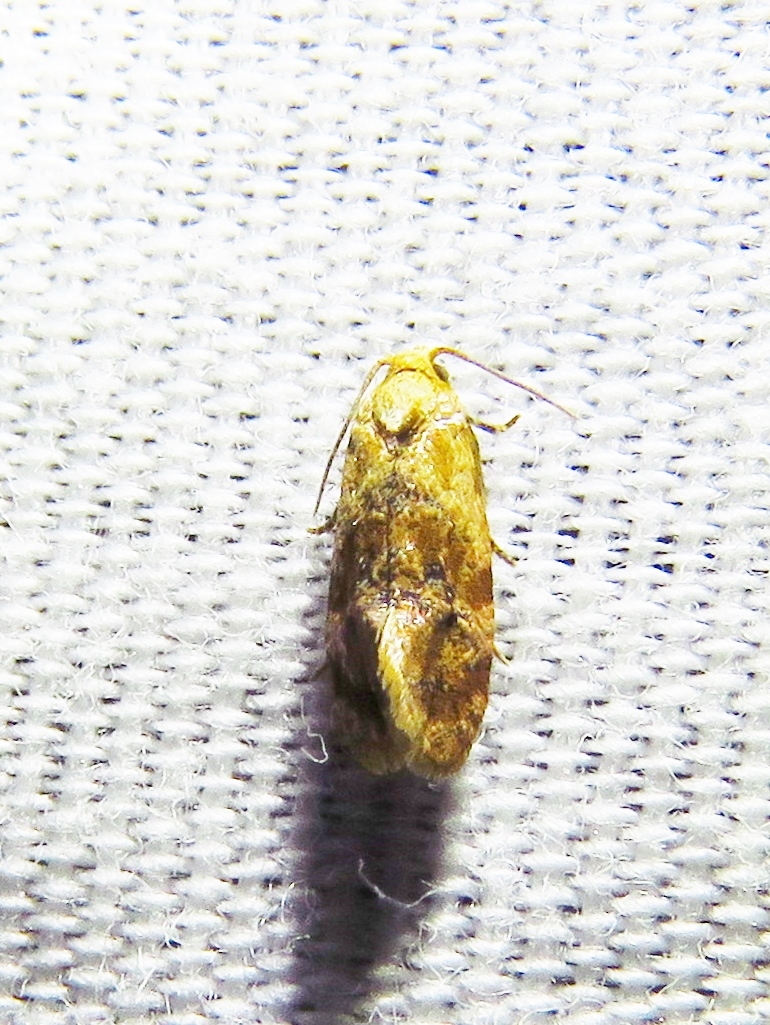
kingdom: Animalia
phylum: Arthropoda
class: Insecta
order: Lepidoptera
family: Tortricidae
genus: Thyraylia
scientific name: Thyraylia bunteana
